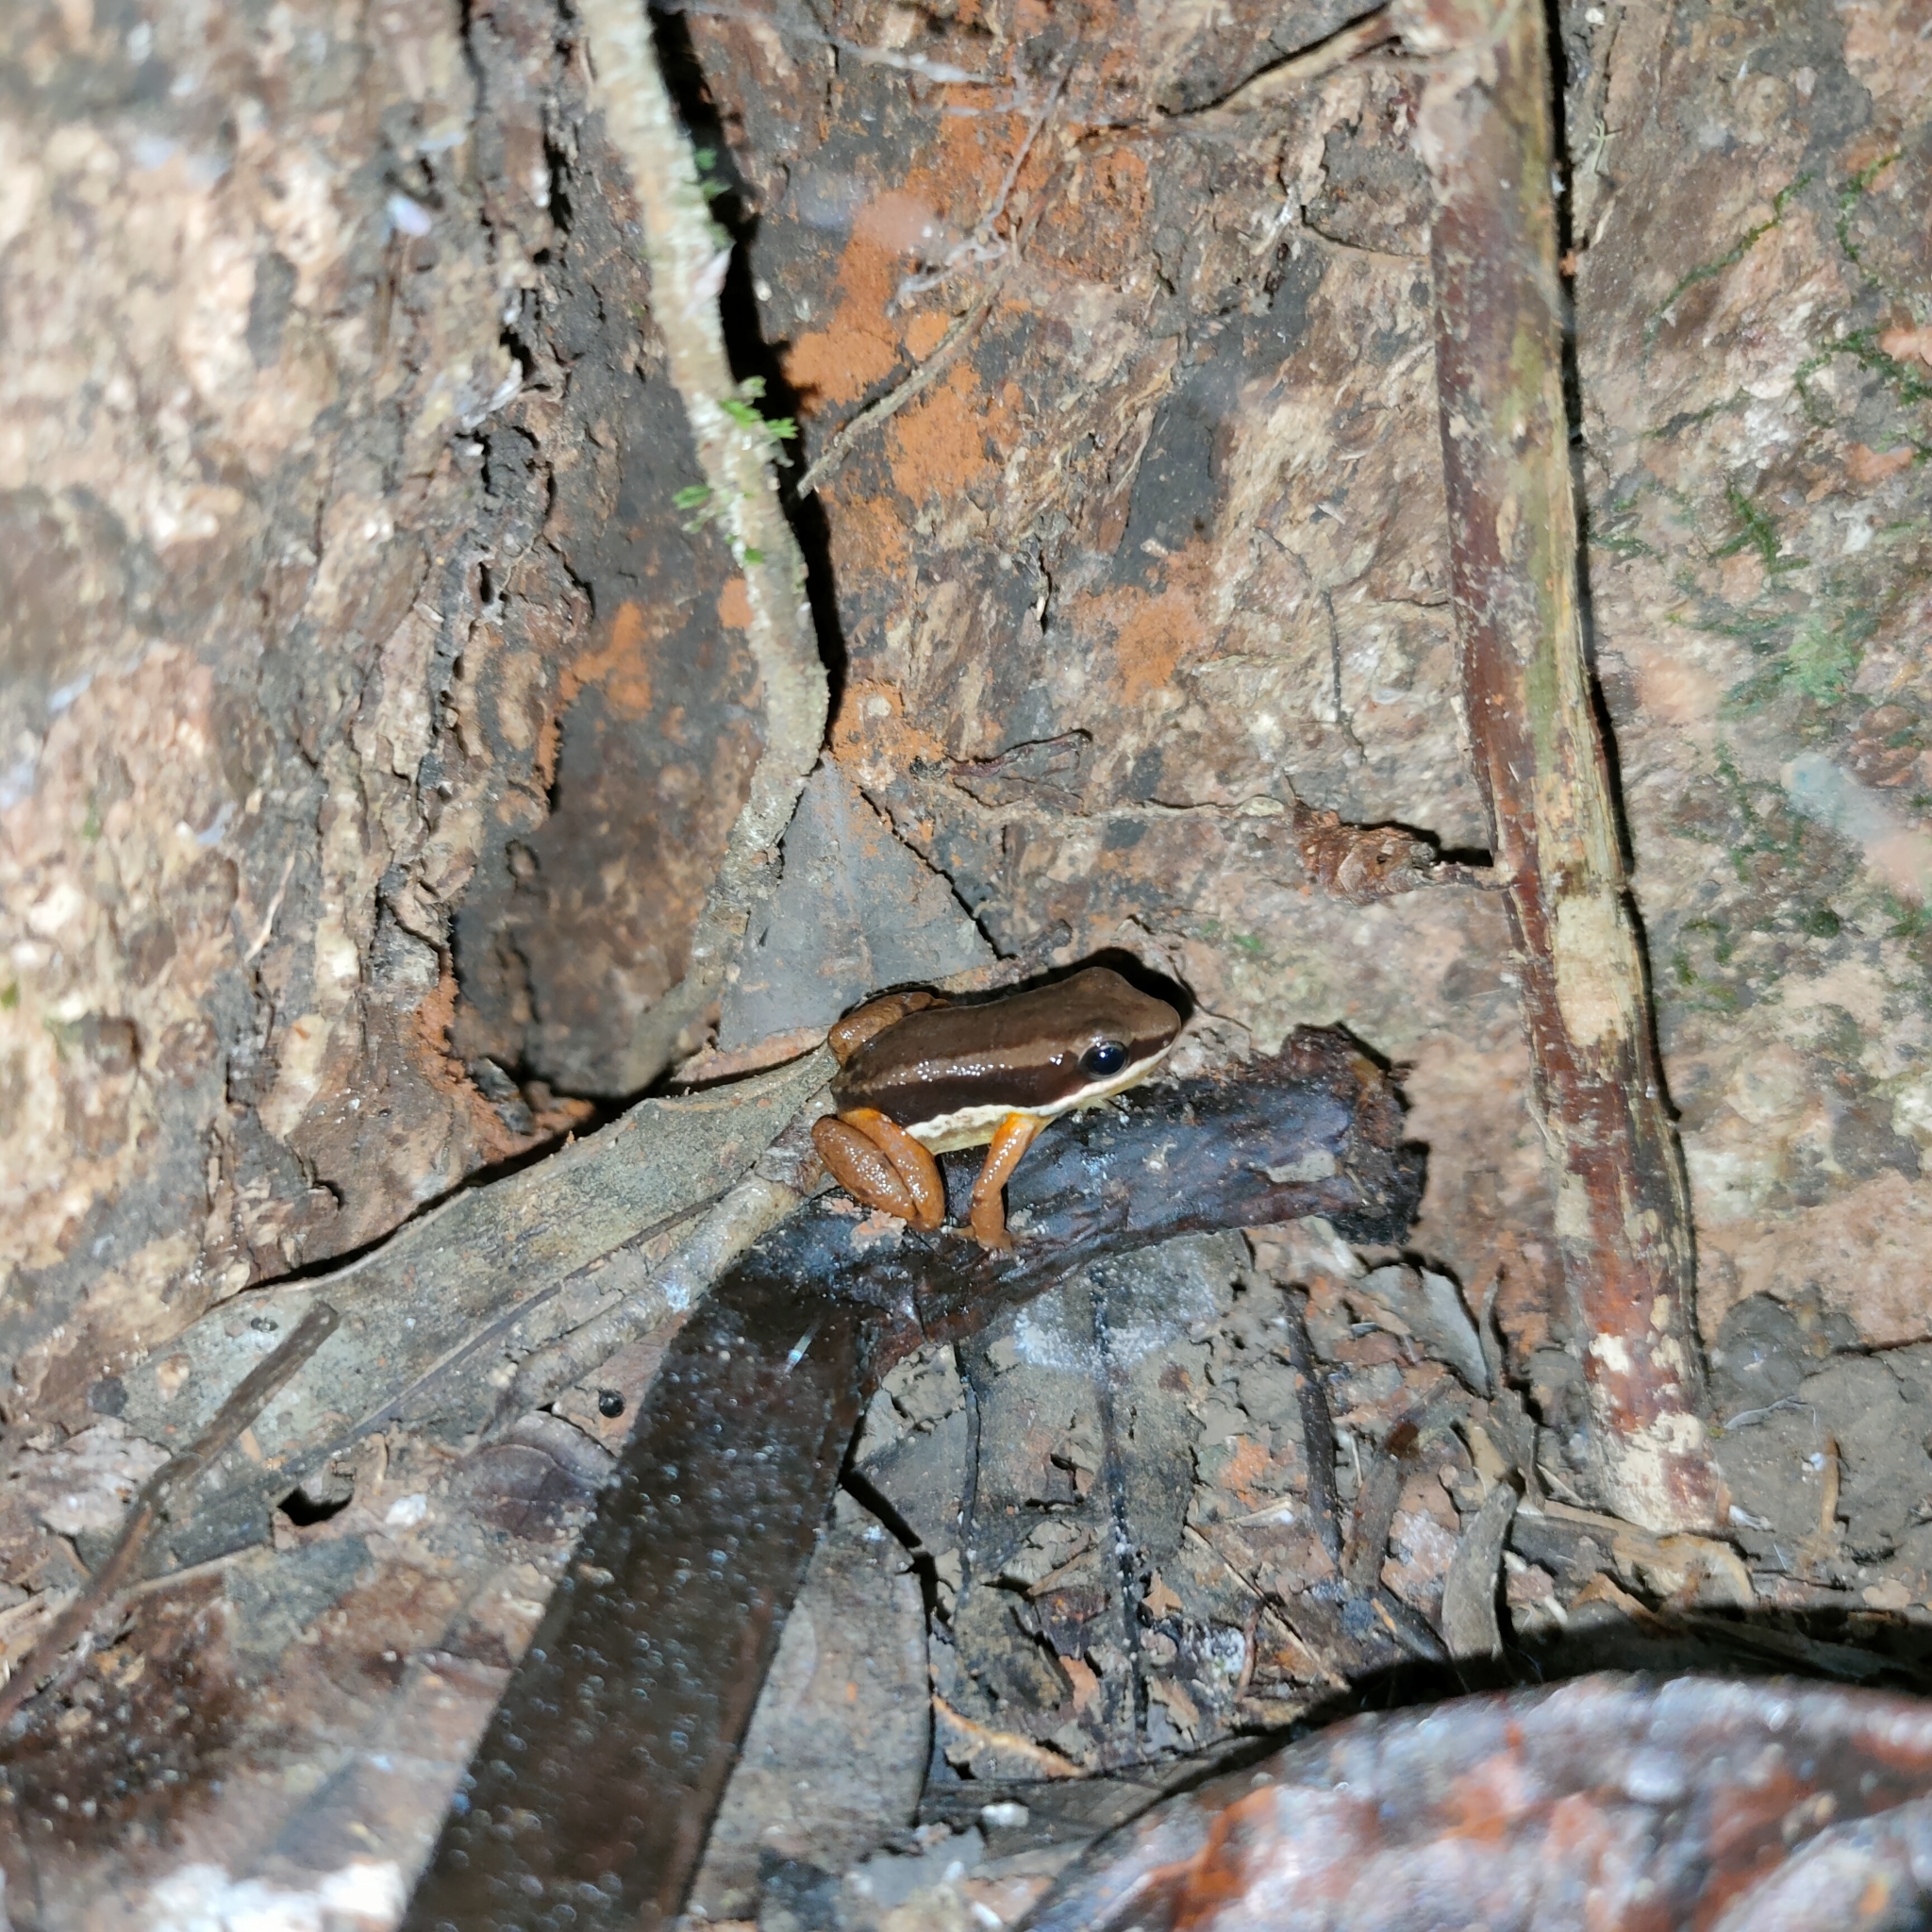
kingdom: Animalia
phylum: Chordata
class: Amphibia
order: Anura
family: Aromobatidae
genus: Allobates
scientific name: Allobates talamancae
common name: Talamanca rocket frog
